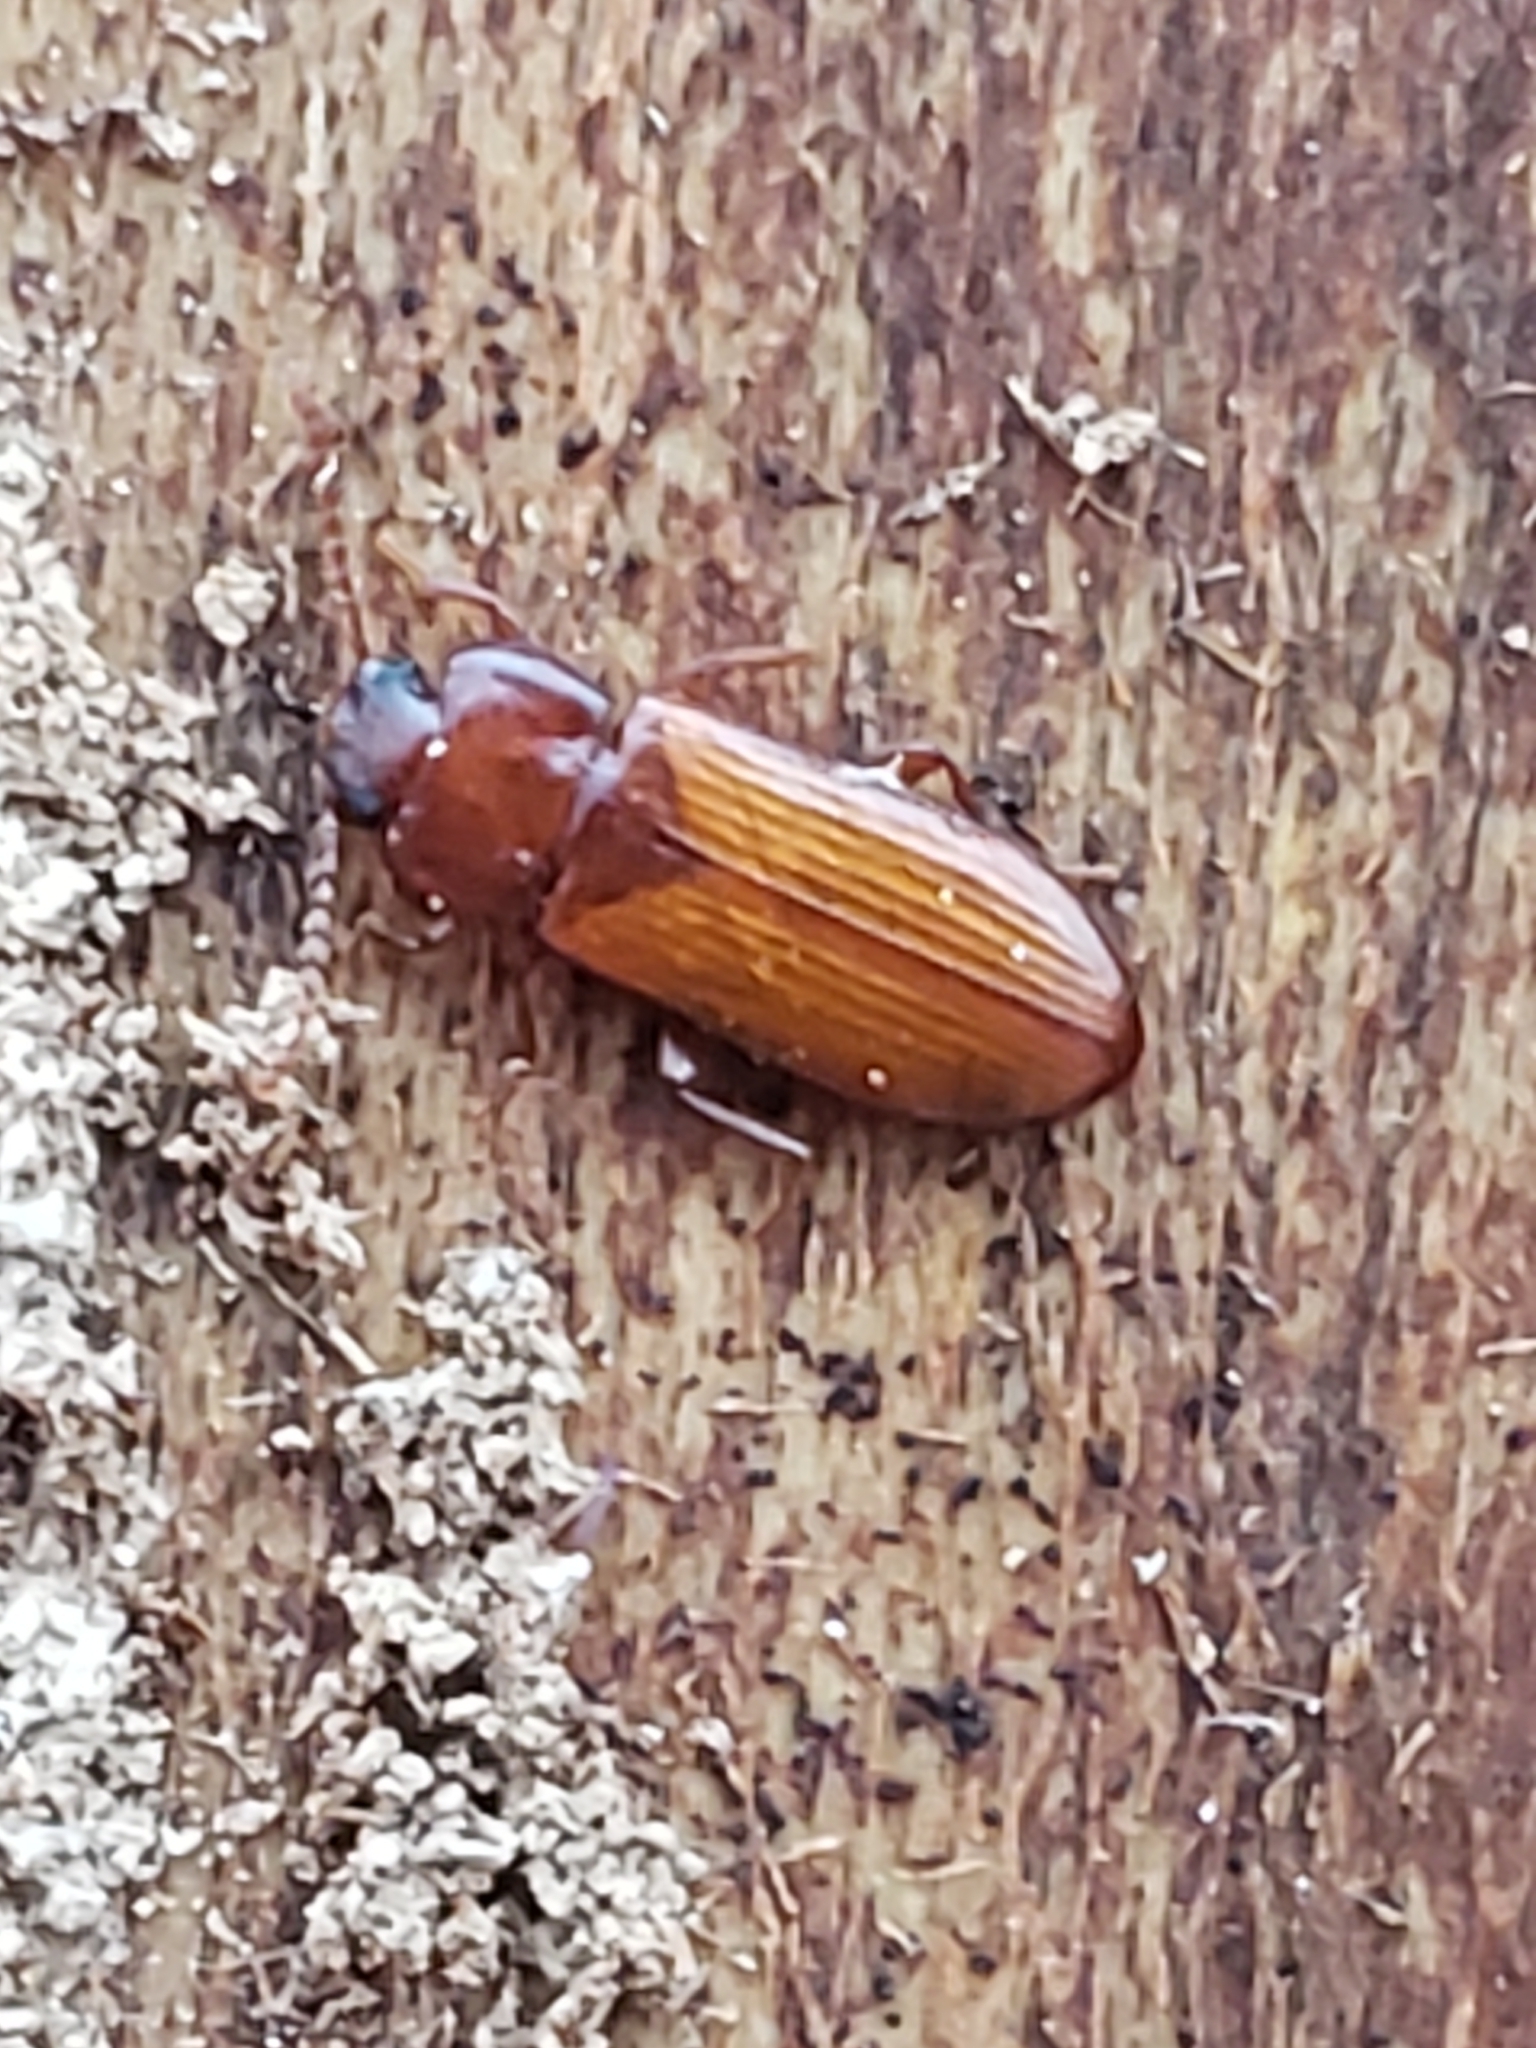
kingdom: Animalia
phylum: Arthropoda
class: Insecta
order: Coleoptera
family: Tenebrionidae
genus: Adelina
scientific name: Adelina pallida
